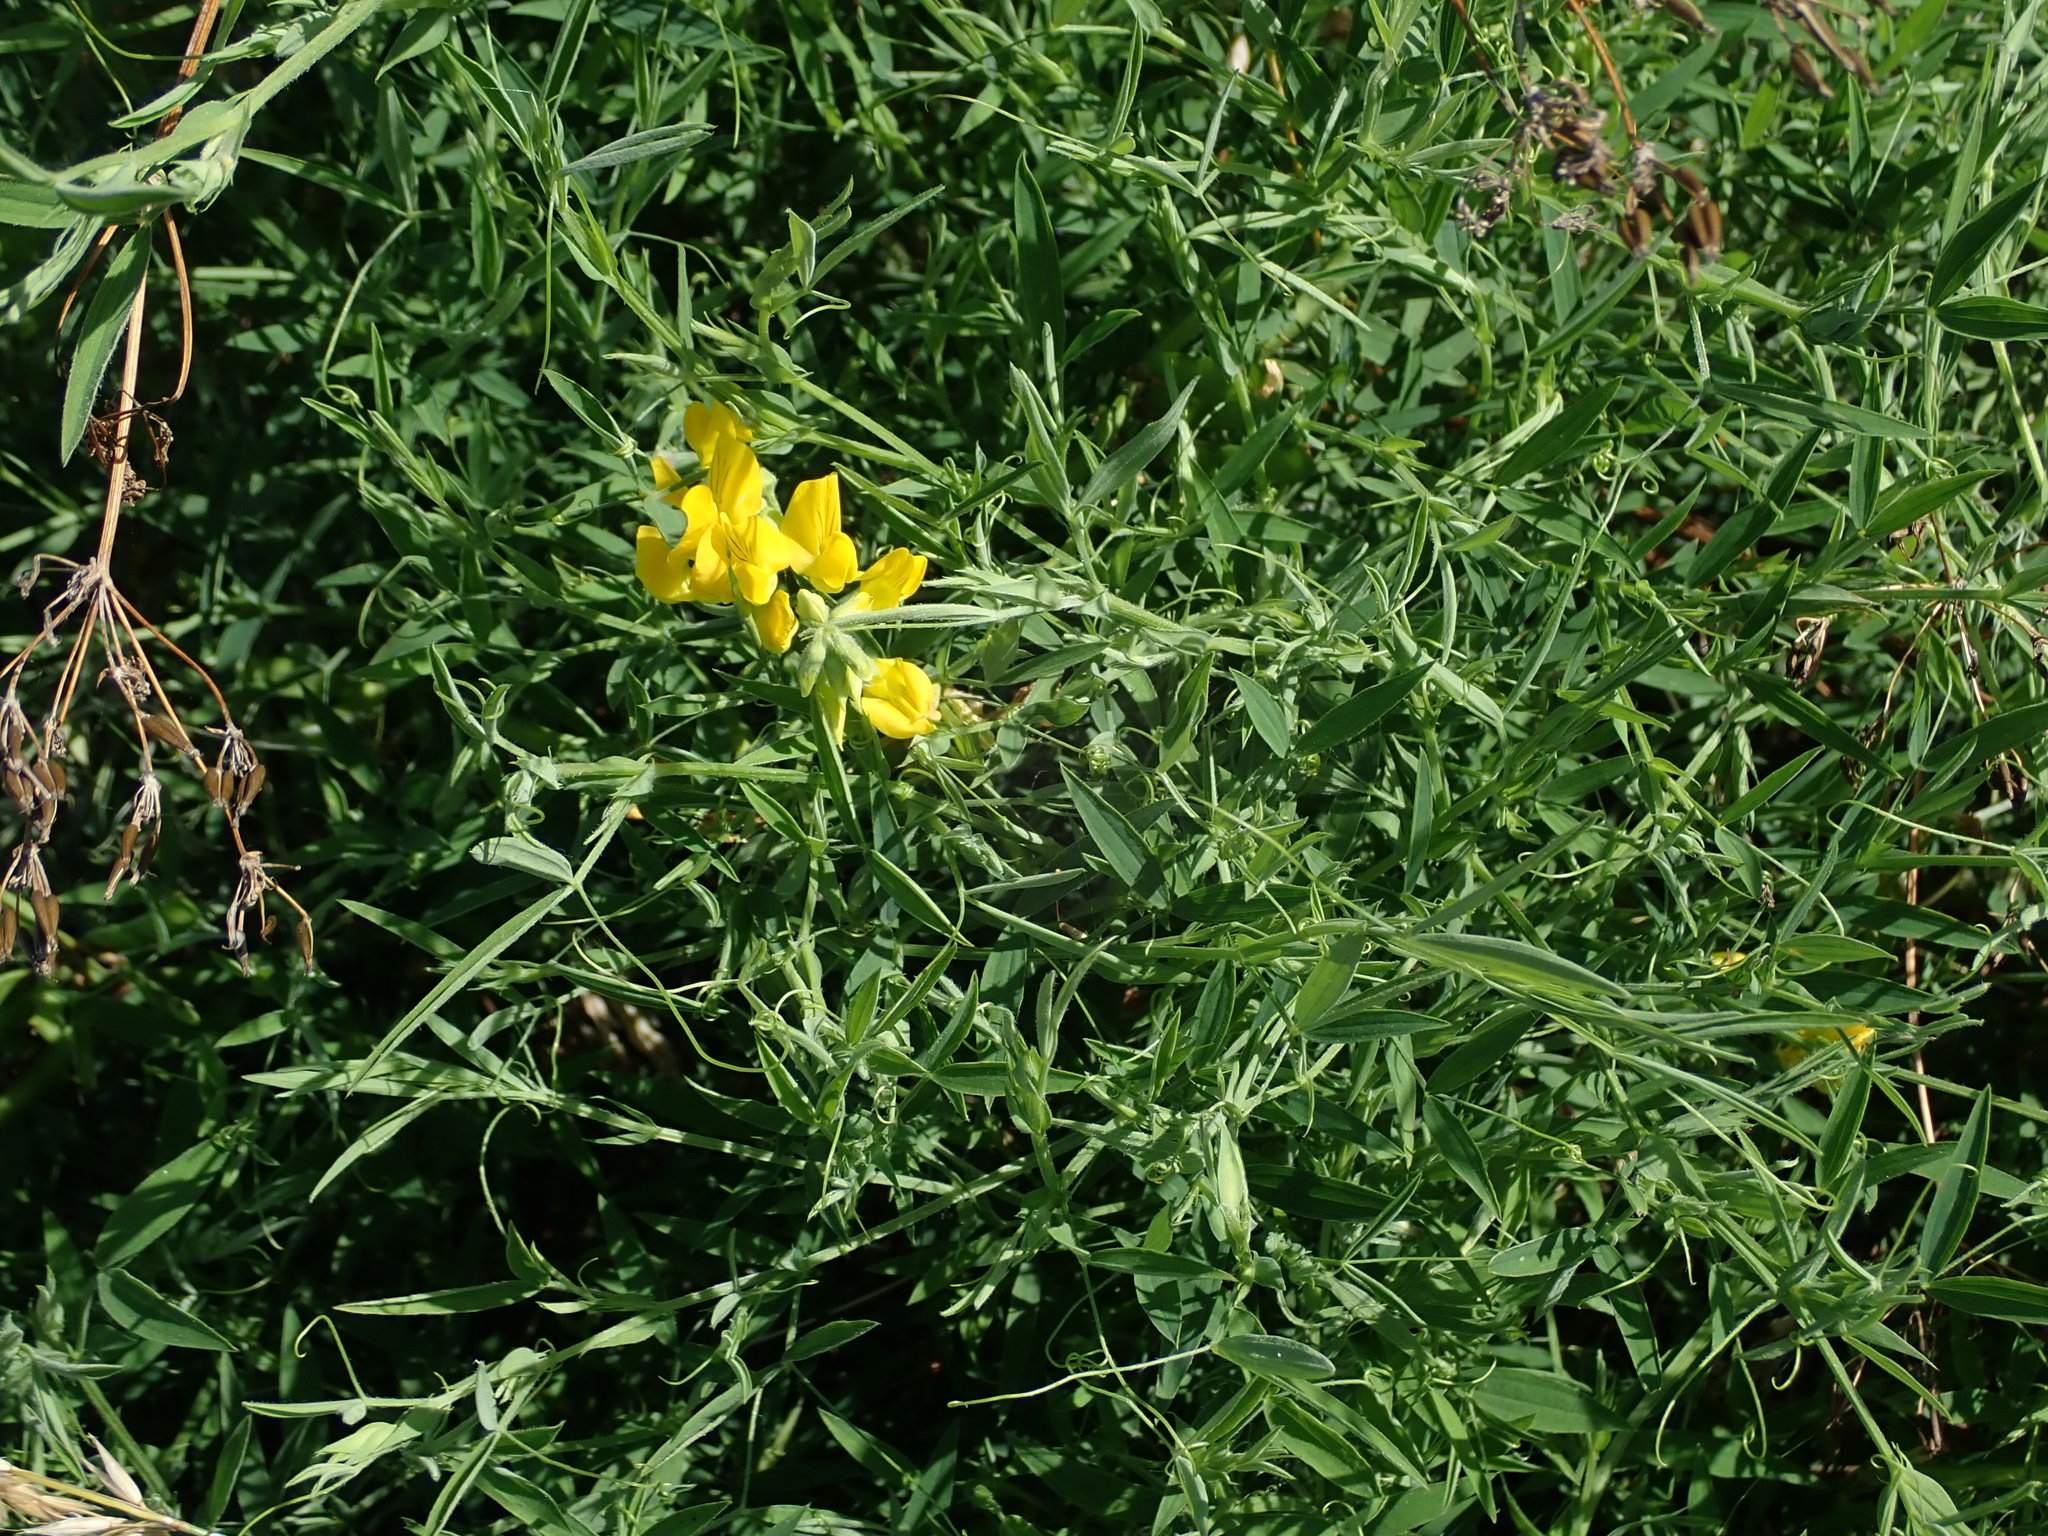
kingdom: Plantae
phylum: Tracheophyta
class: Magnoliopsida
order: Fabales
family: Fabaceae
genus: Lathyrus
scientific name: Lathyrus pratensis
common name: Meadow vetchling
